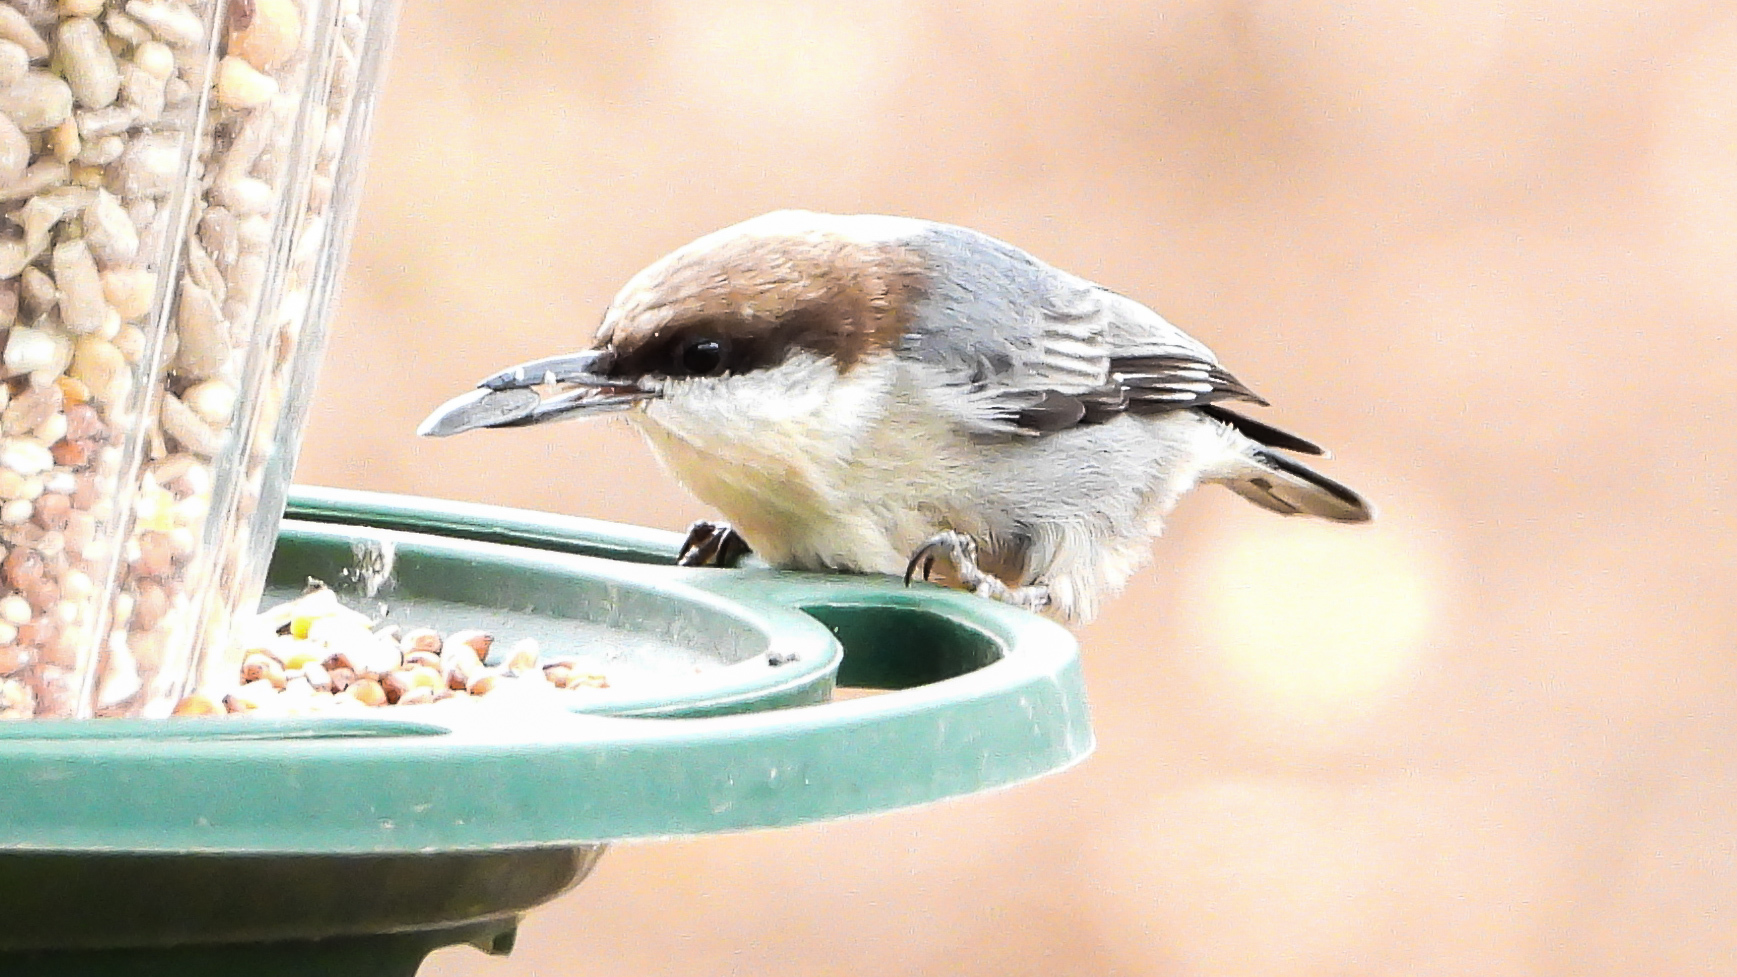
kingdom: Animalia
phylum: Chordata
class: Aves
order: Passeriformes
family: Sittidae
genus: Sitta
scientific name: Sitta pusilla
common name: Brown-headed nuthatch
